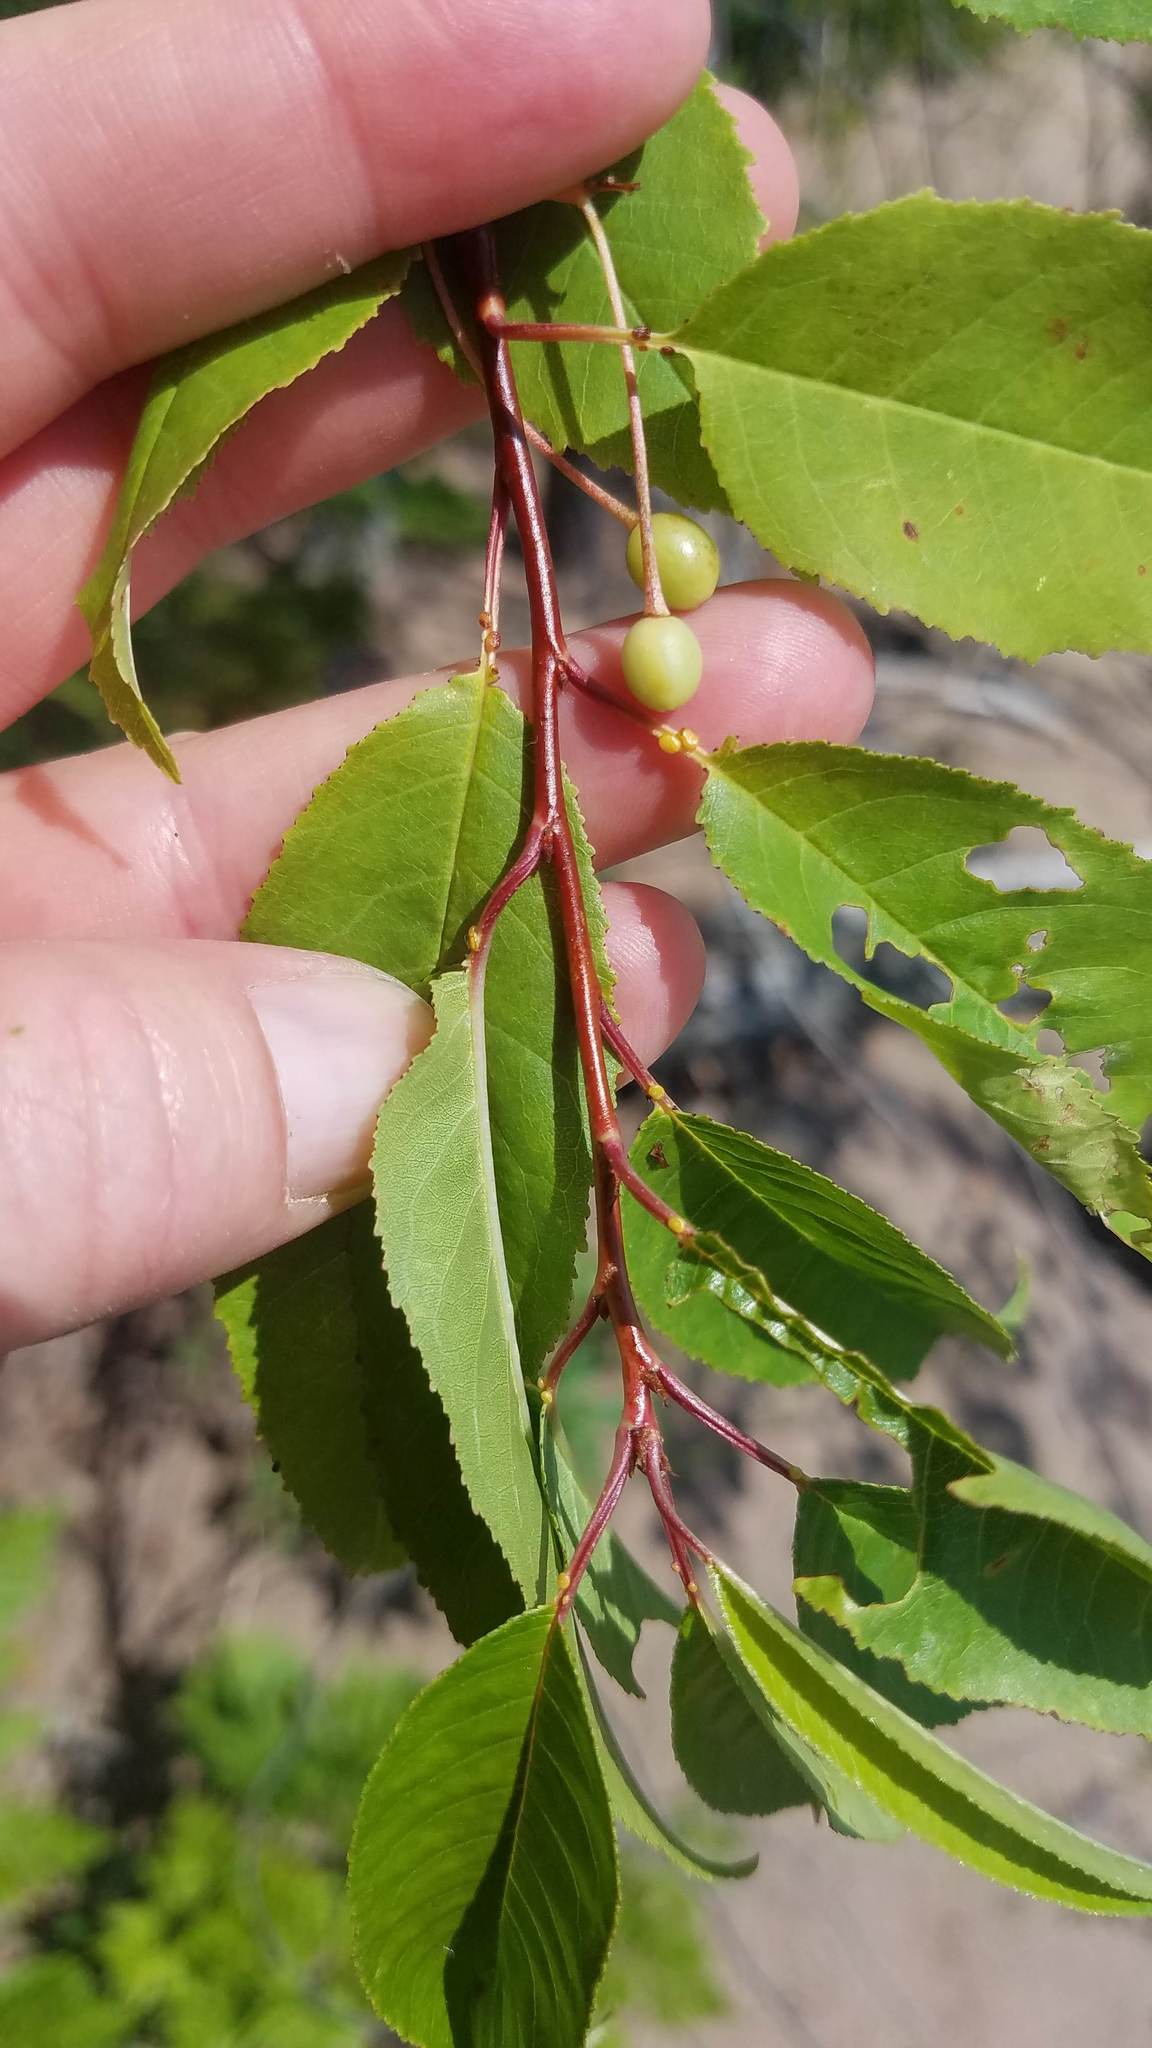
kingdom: Plantae
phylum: Tracheophyta
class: Magnoliopsida
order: Rosales
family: Rosaceae
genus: Prunus
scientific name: Prunus pensylvanica
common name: Pin cherry
